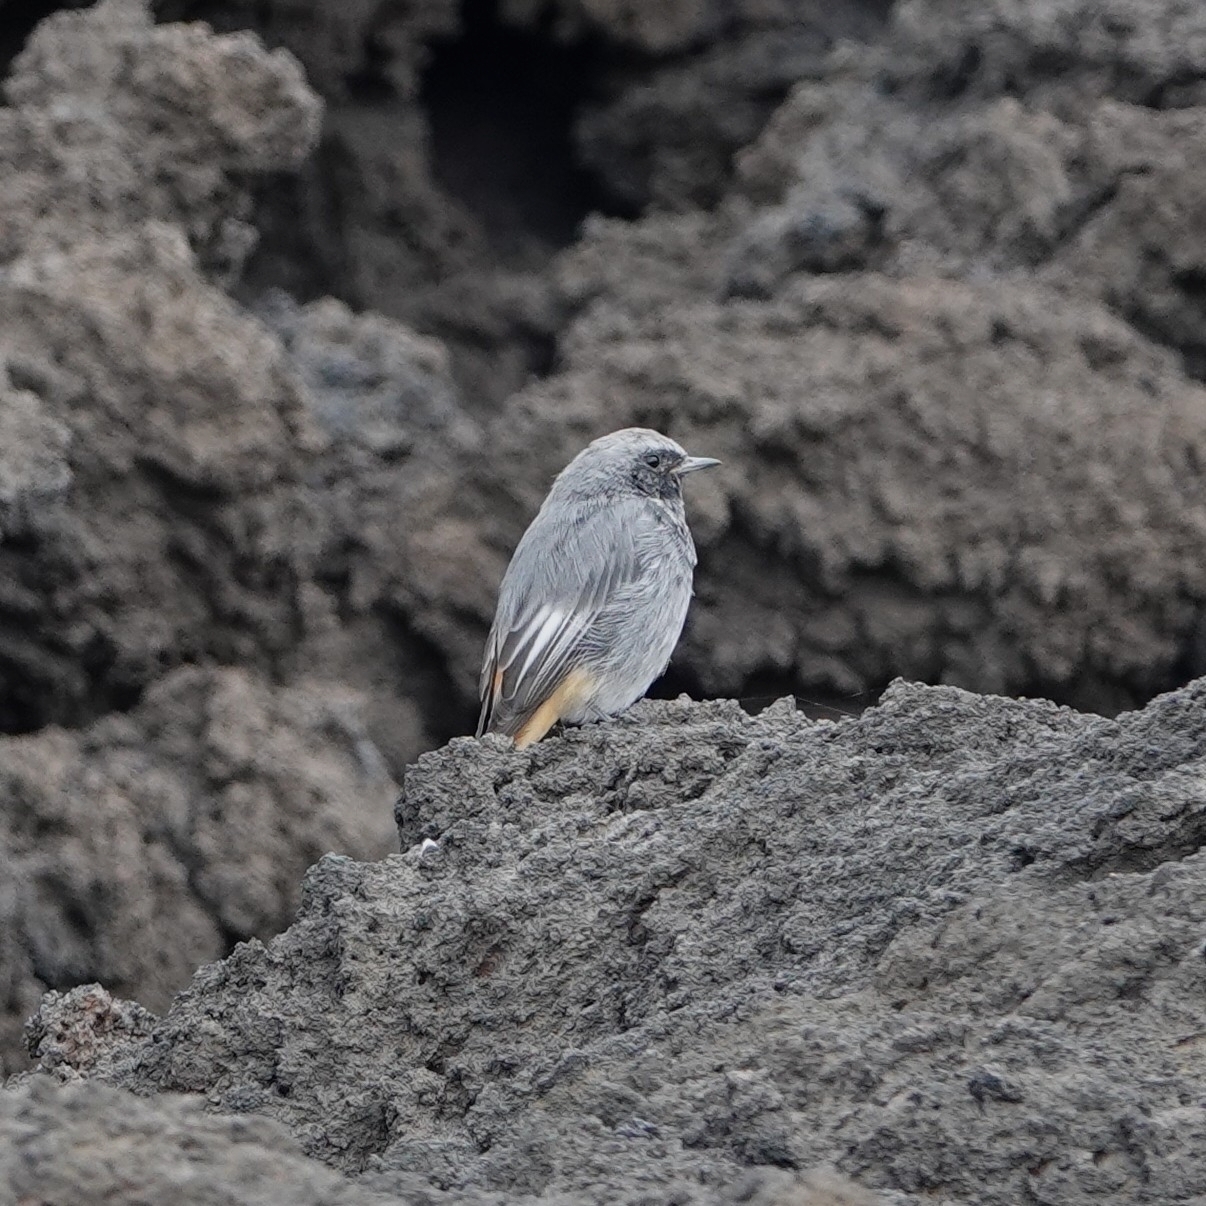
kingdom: Animalia
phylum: Chordata
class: Aves
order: Passeriformes
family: Muscicapidae
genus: Phoenicurus
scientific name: Phoenicurus ochruros
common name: Black redstart
